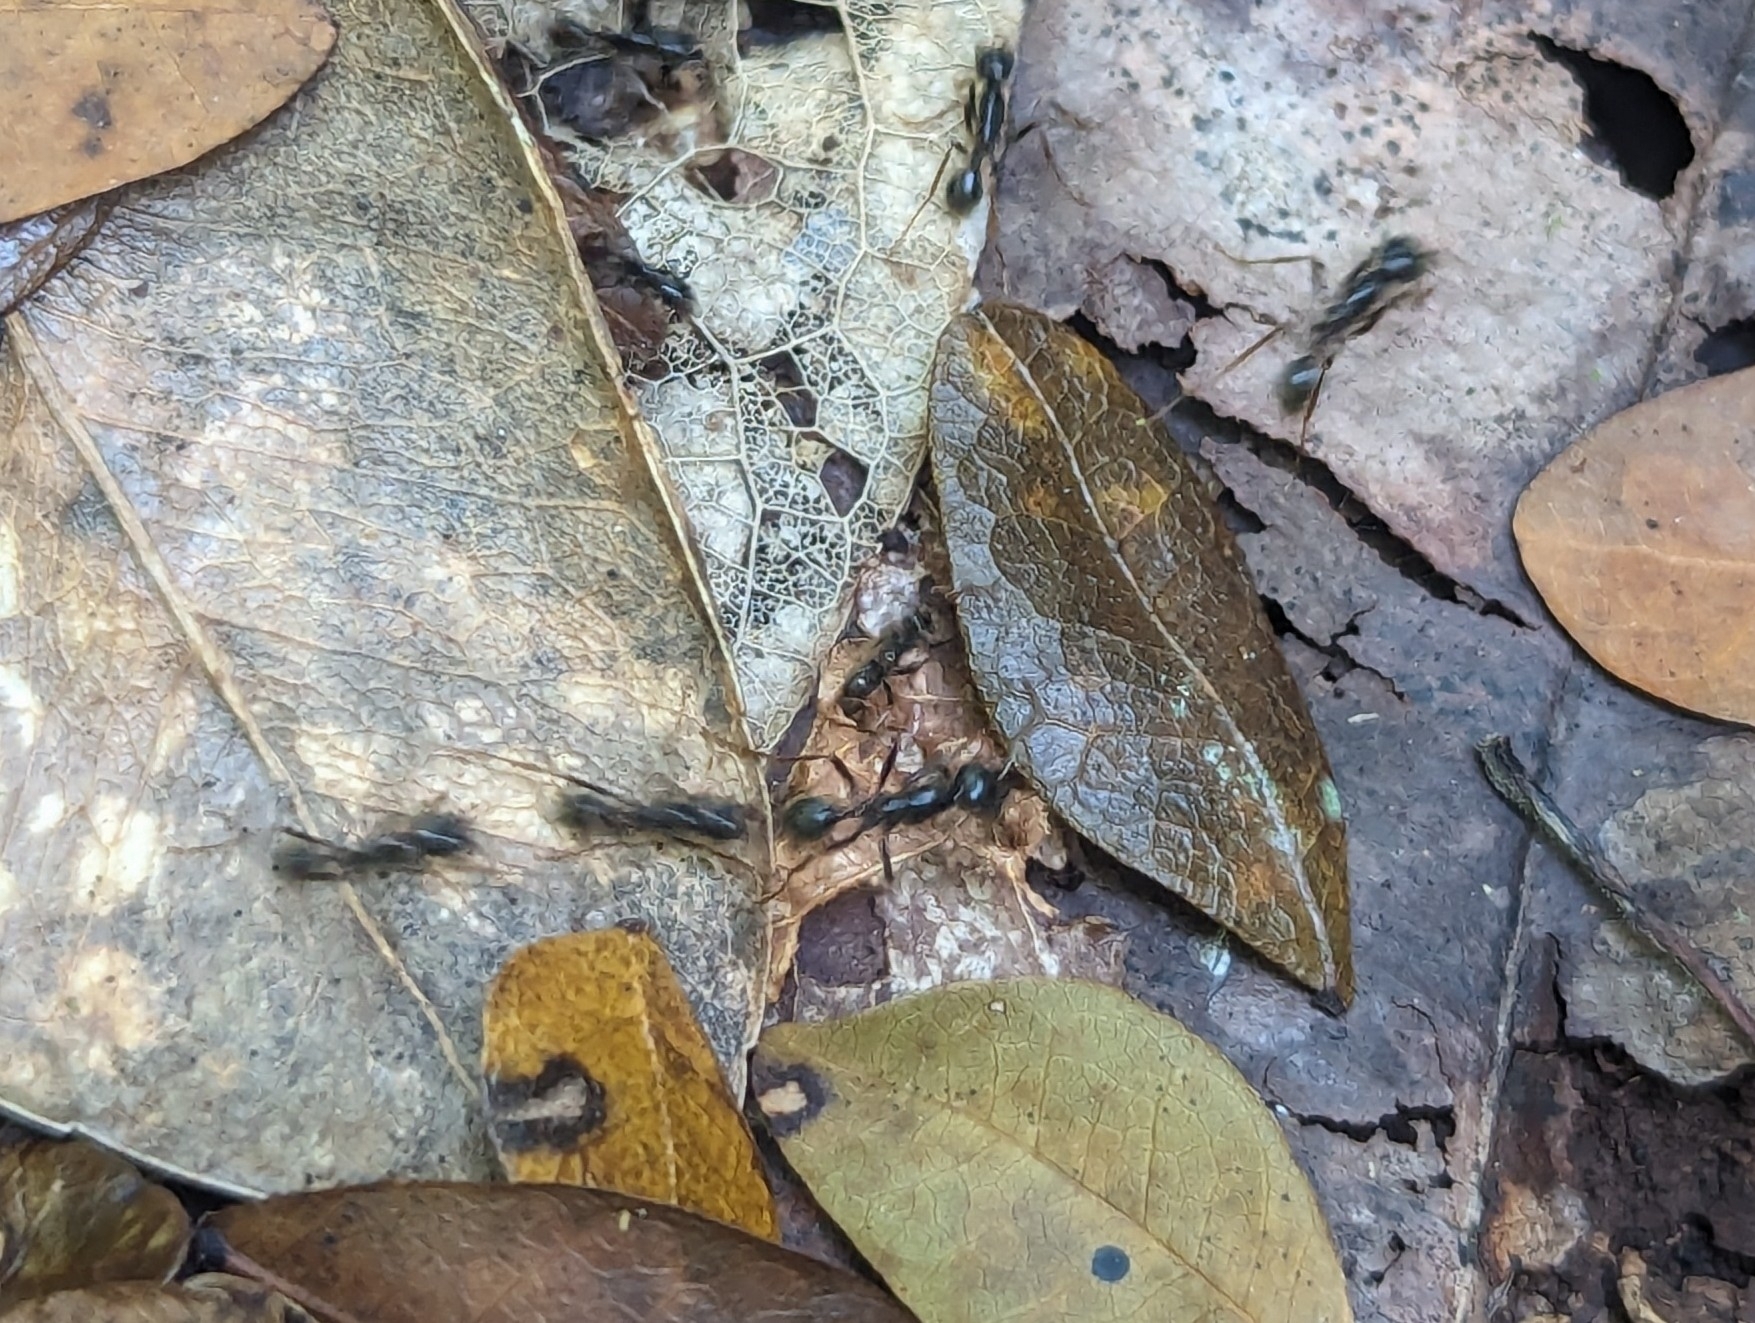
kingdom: Animalia
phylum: Arthropoda
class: Insecta
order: Hymenoptera
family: Formicidae
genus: Labidus
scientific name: Labidus praedator
